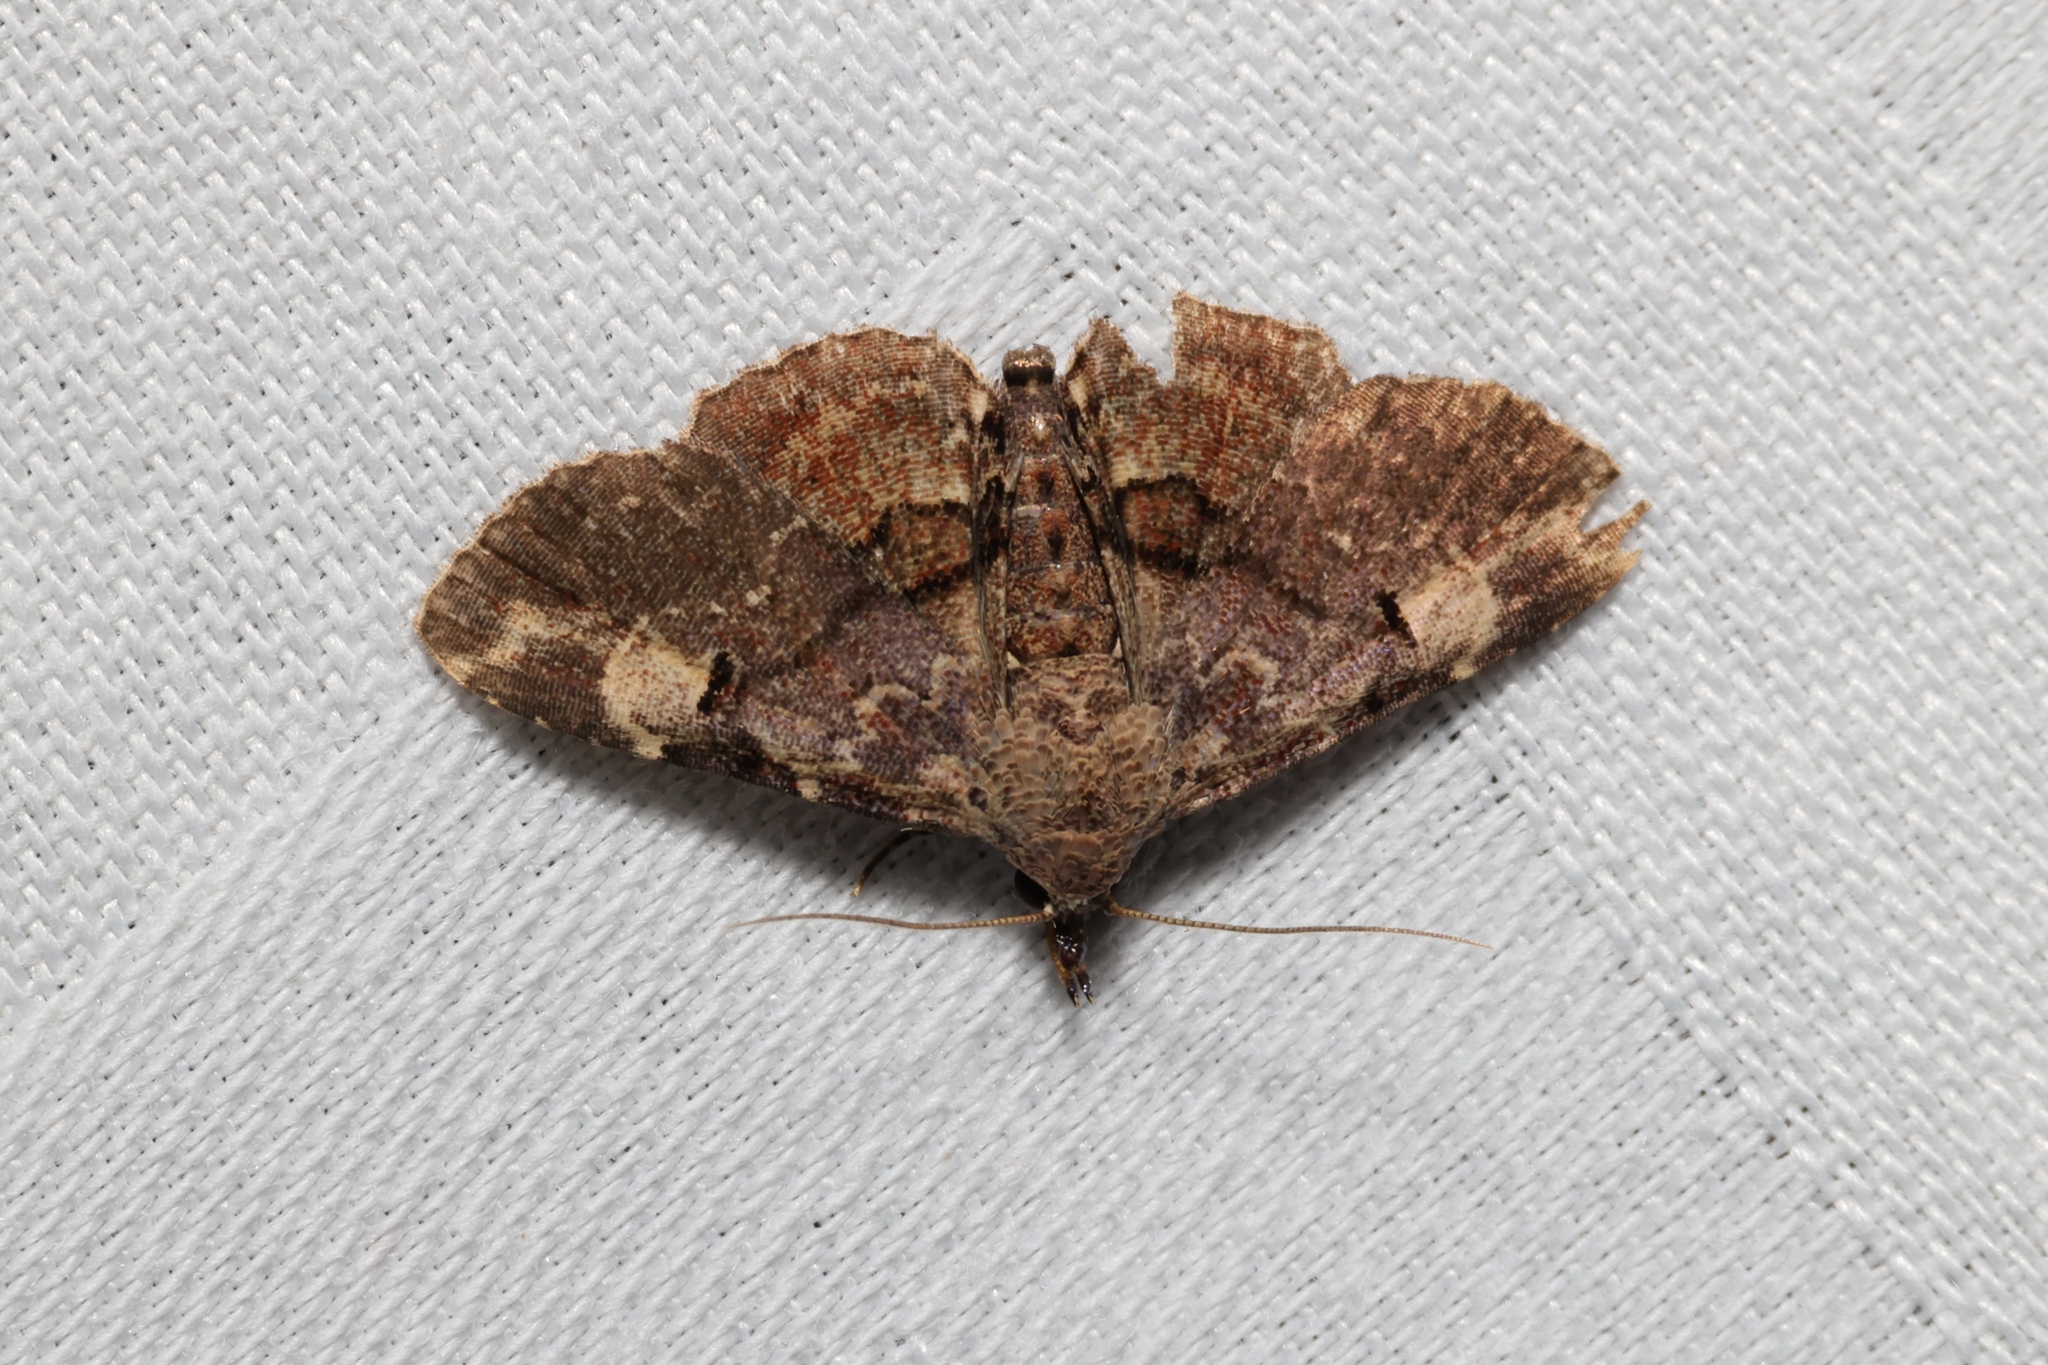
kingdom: Animalia
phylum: Arthropoda
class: Insecta
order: Lepidoptera
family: Erebidae
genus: Maguda
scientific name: Maguda suffusa
